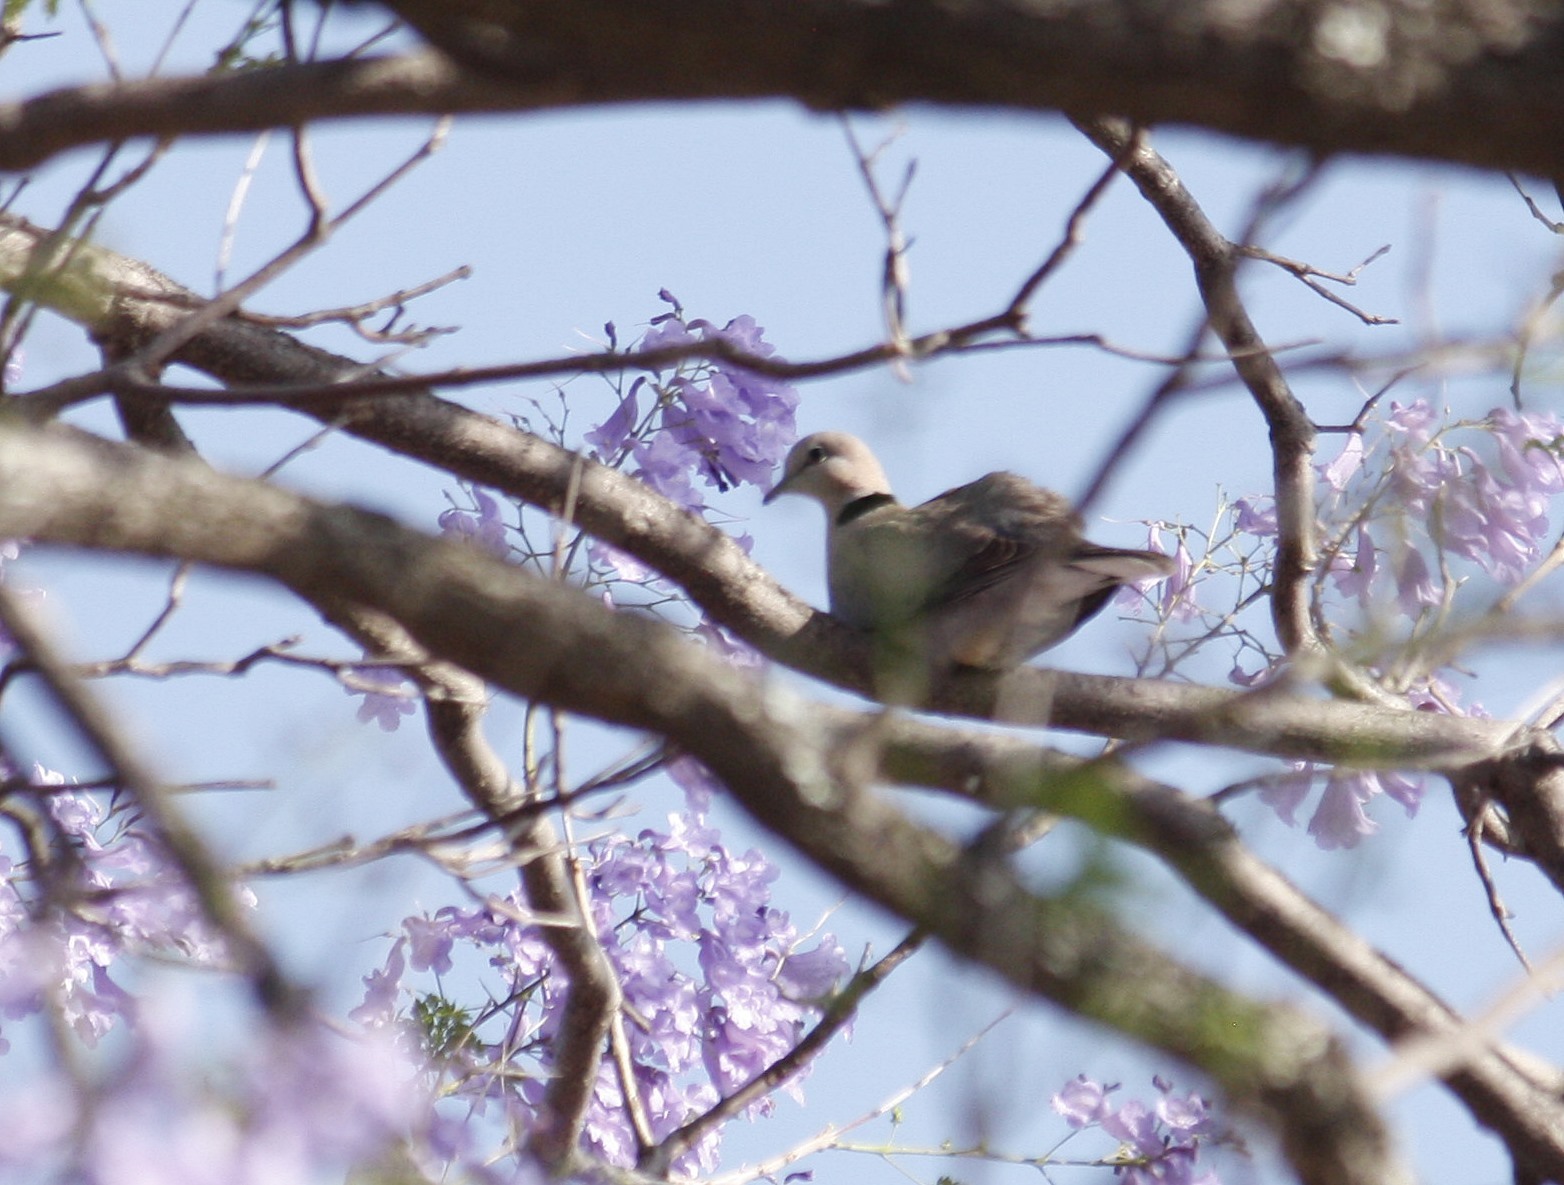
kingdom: Animalia
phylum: Chordata
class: Aves
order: Columbiformes
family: Columbidae
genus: Streptopelia
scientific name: Streptopelia capicola
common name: Ring-necked dove
